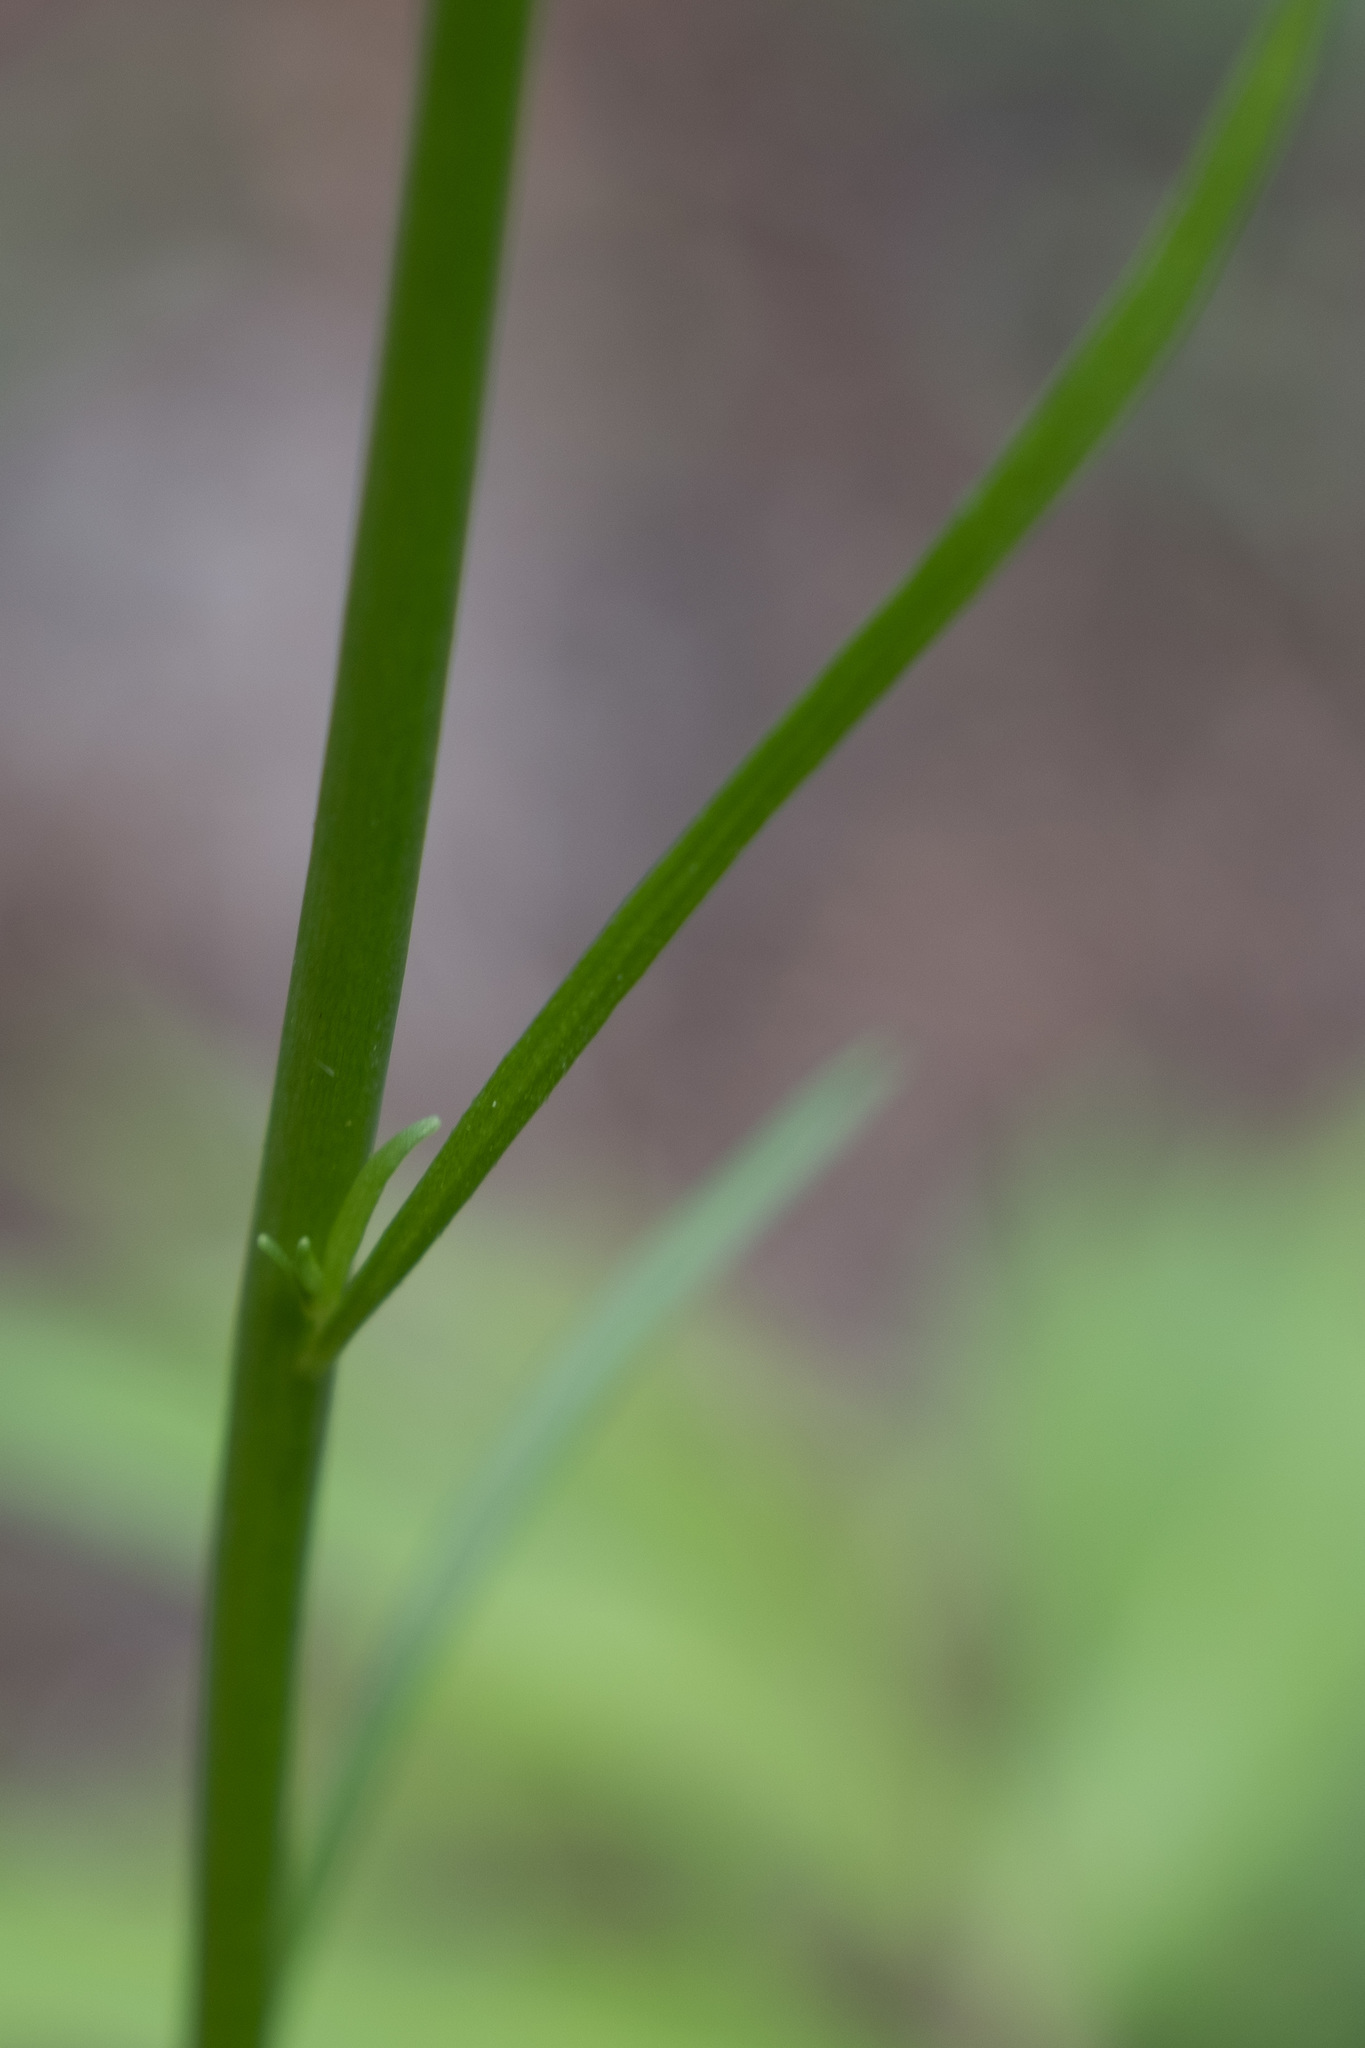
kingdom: Plantae
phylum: Tracheophyta
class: Magnoliopsida
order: Lamiales
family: Plantaginaceae
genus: Nuttallanthus
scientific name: Nuttallanthus canadensis
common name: Blue toadflax
